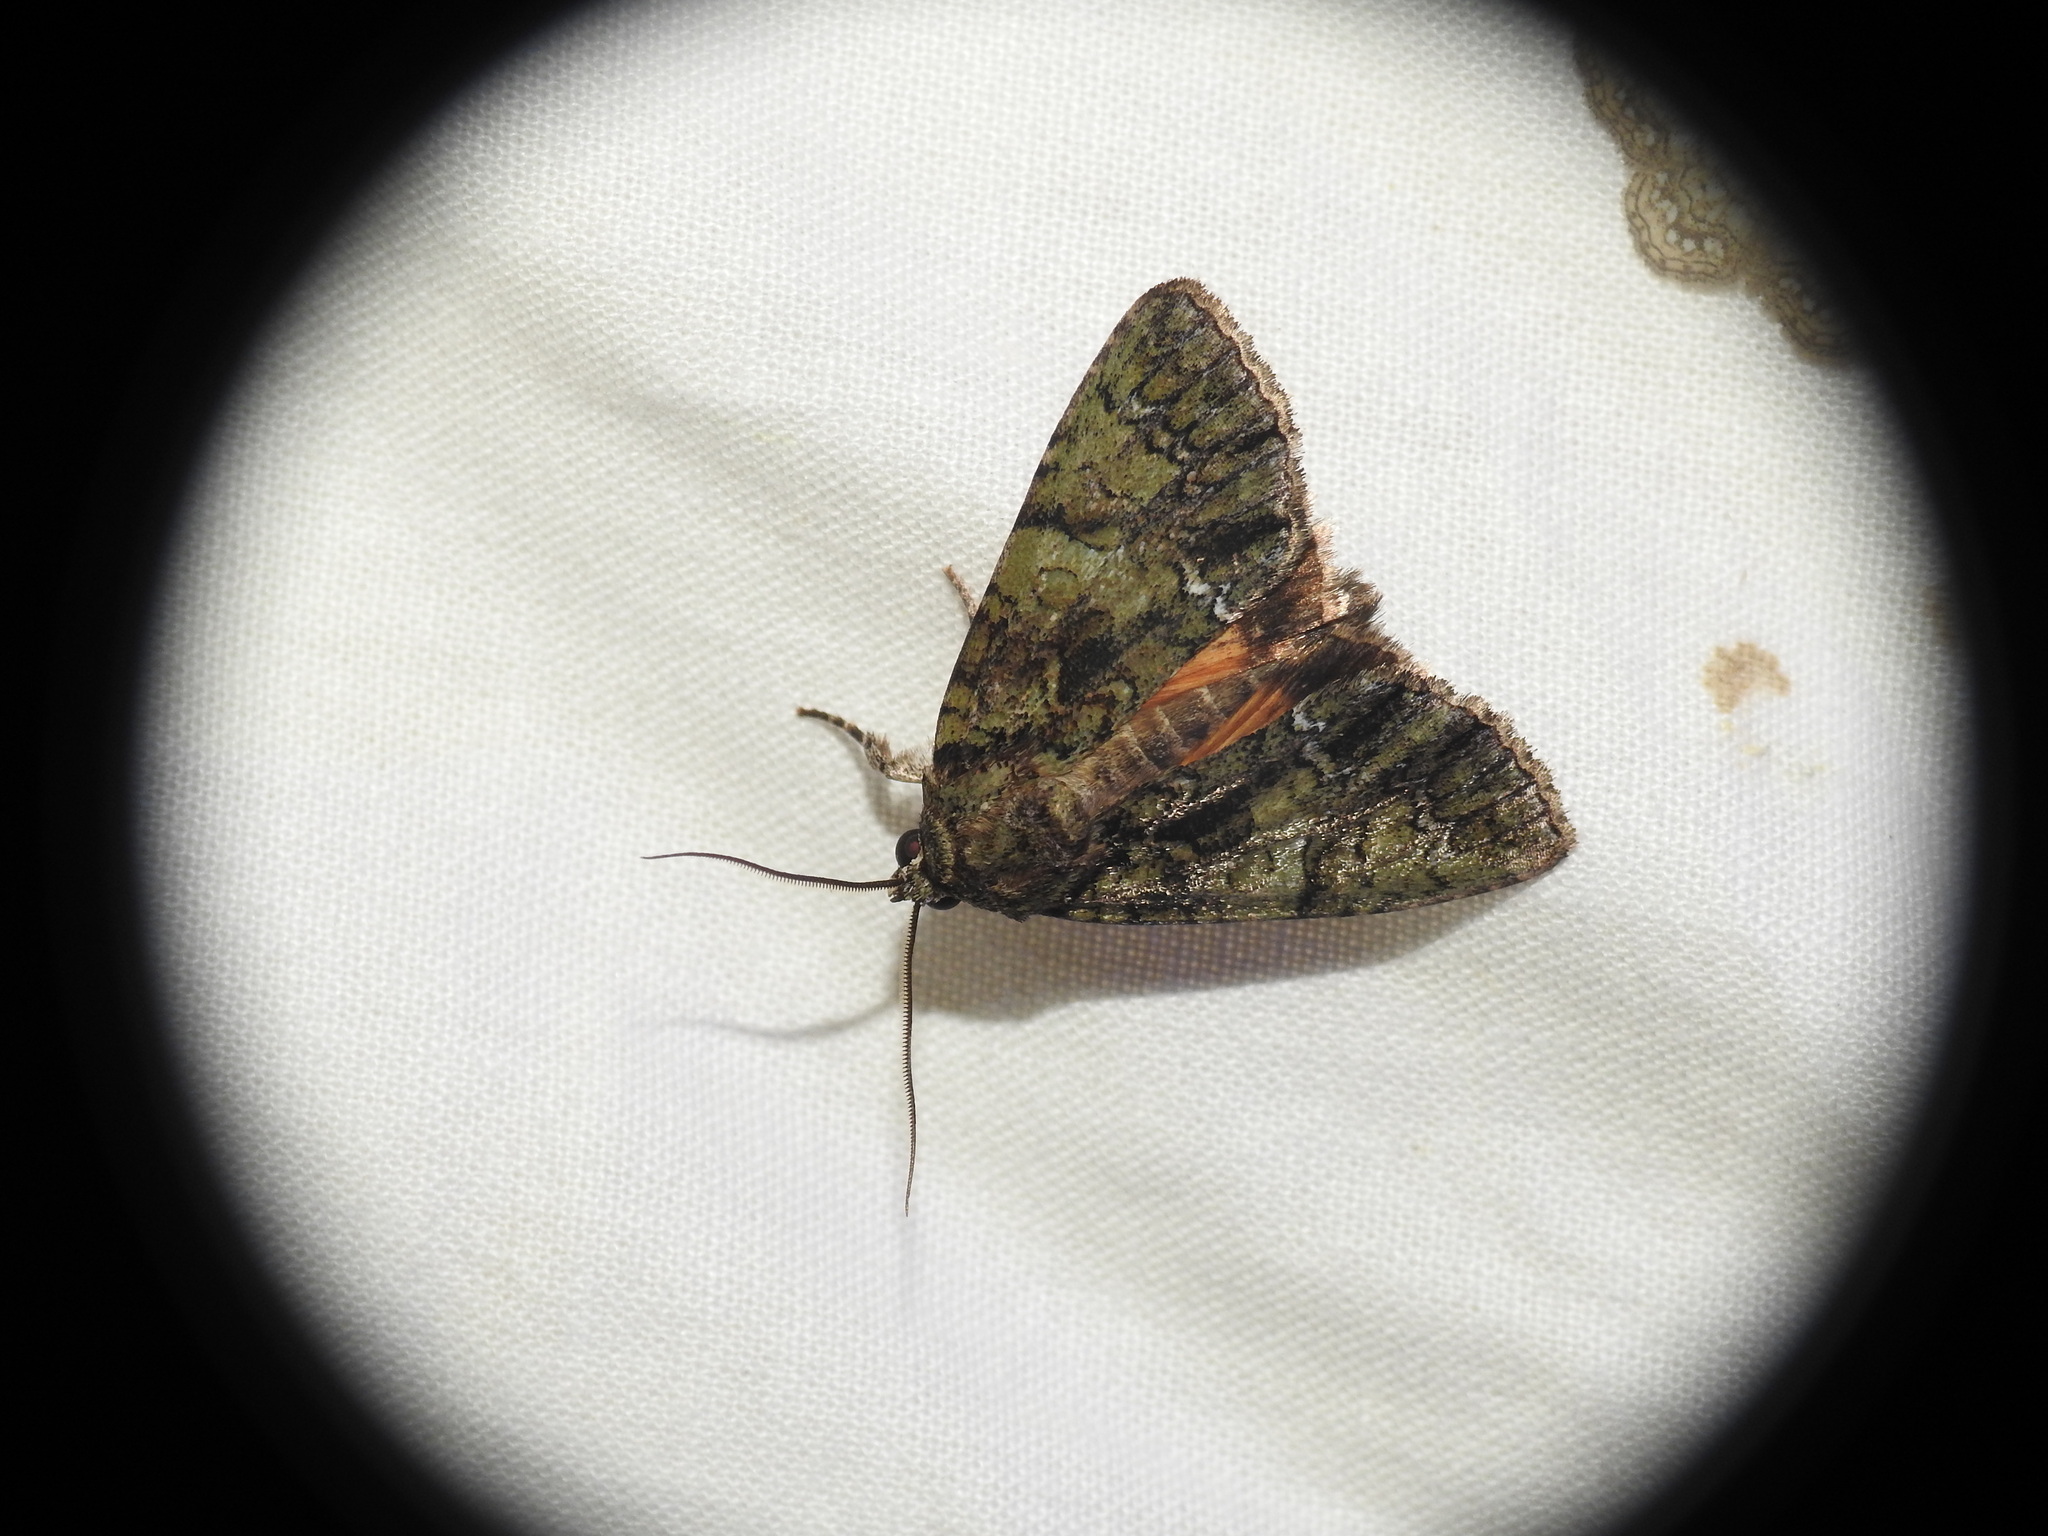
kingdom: Animalia
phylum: Arthropoda
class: Insecta
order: Lepidoptera
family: Noctuidae
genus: Polyphaenis
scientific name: Polyphaenis sericata
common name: Guernsey underwing
